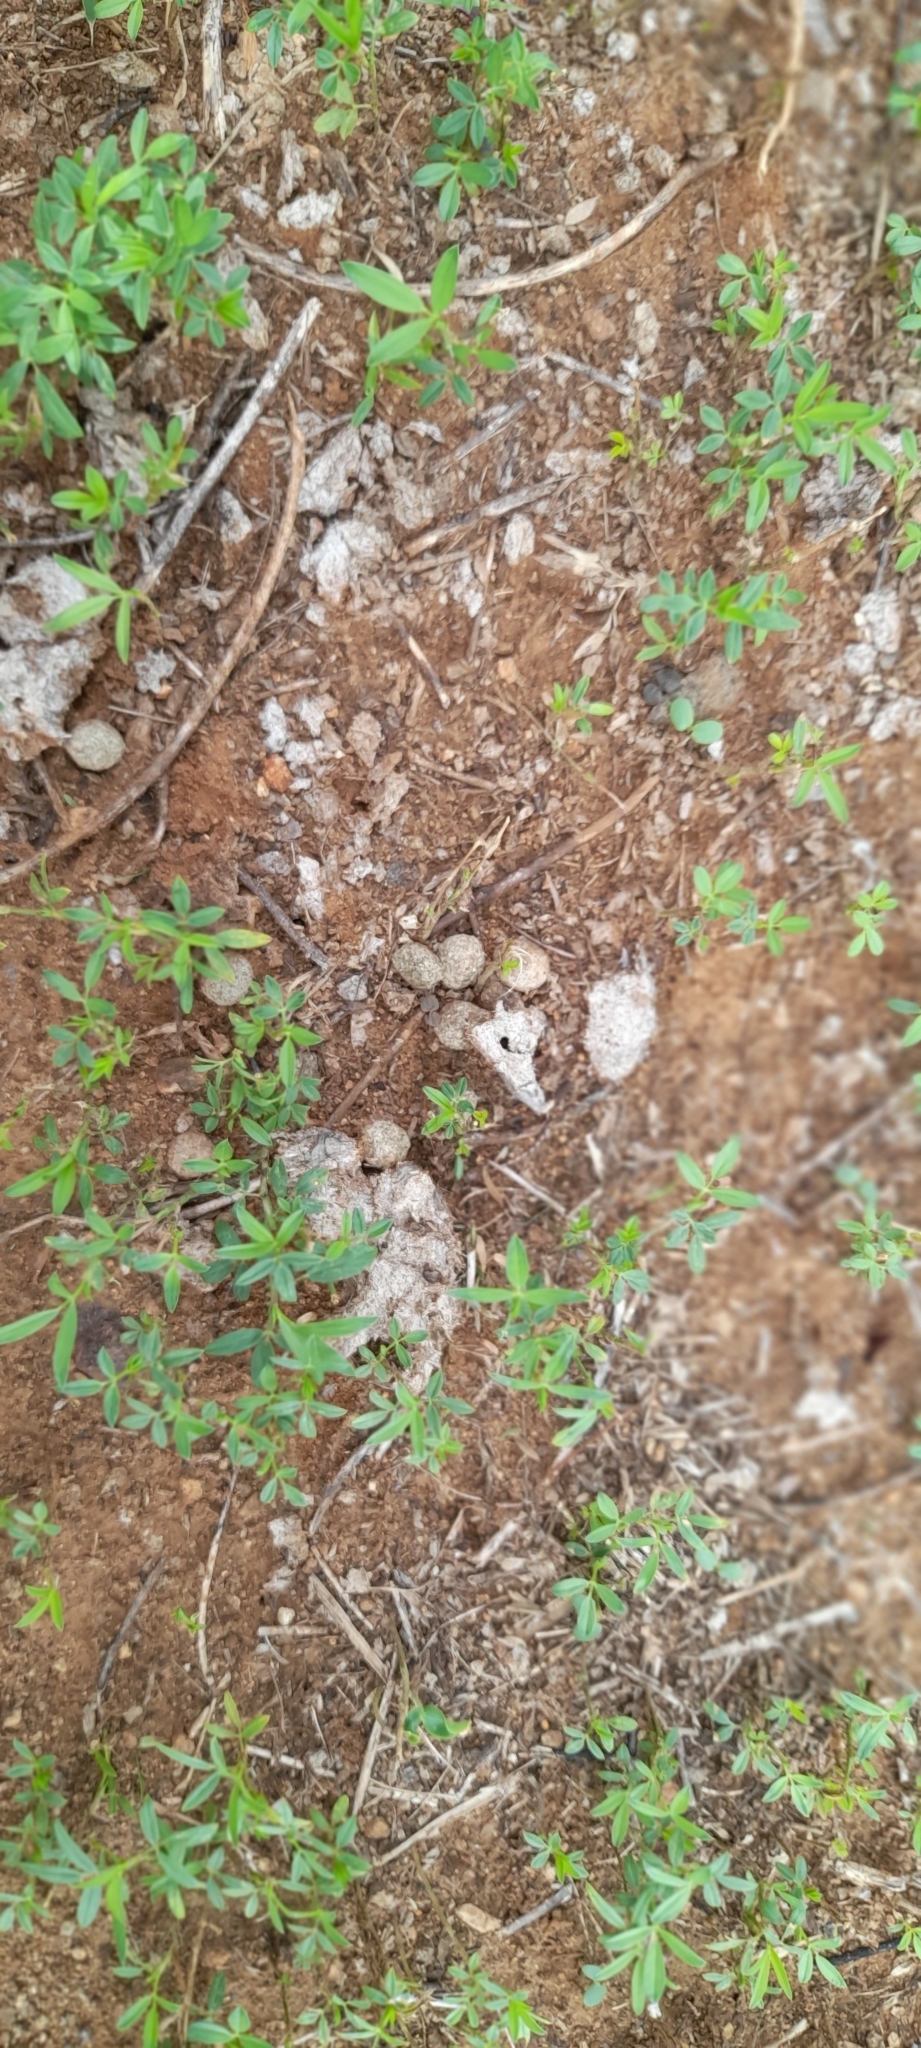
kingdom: Animalia
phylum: Chordata
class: Mammalia
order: Lagomorpha
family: Leporidae
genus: Lepus
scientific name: Lepus nigricollis
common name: Indian hare
